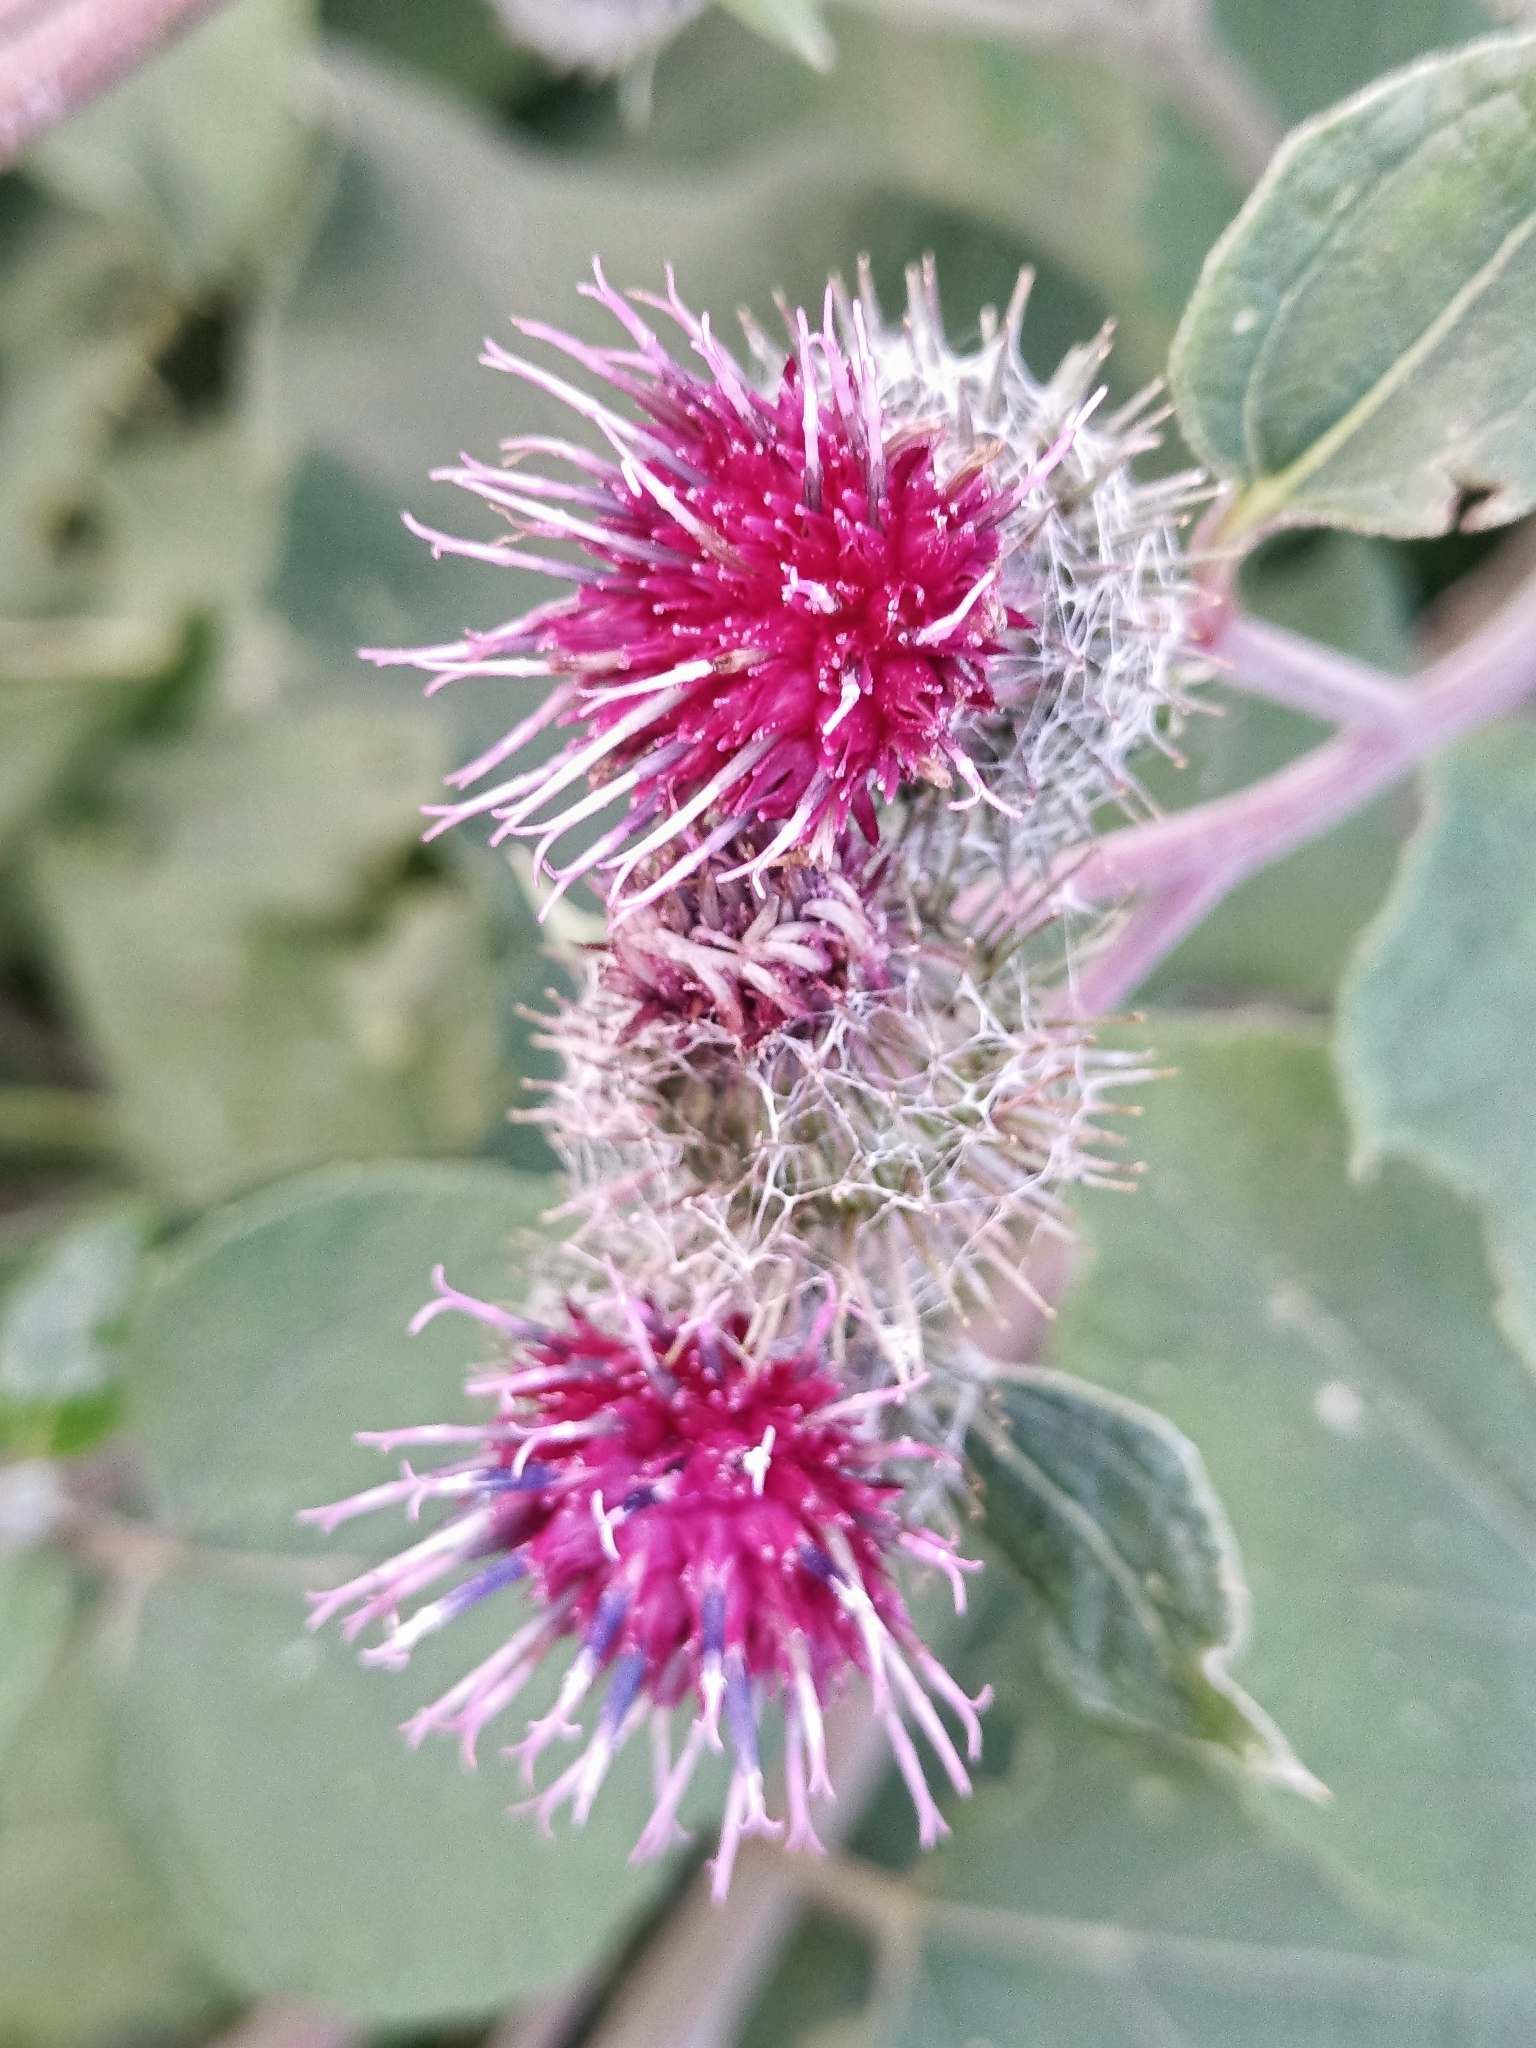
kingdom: Plantae
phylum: Tracheophyta
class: Magnoliopsida
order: Asterales
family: Asteraceae
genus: Arctium
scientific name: Arctium tomentosum
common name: Woolly burdock
